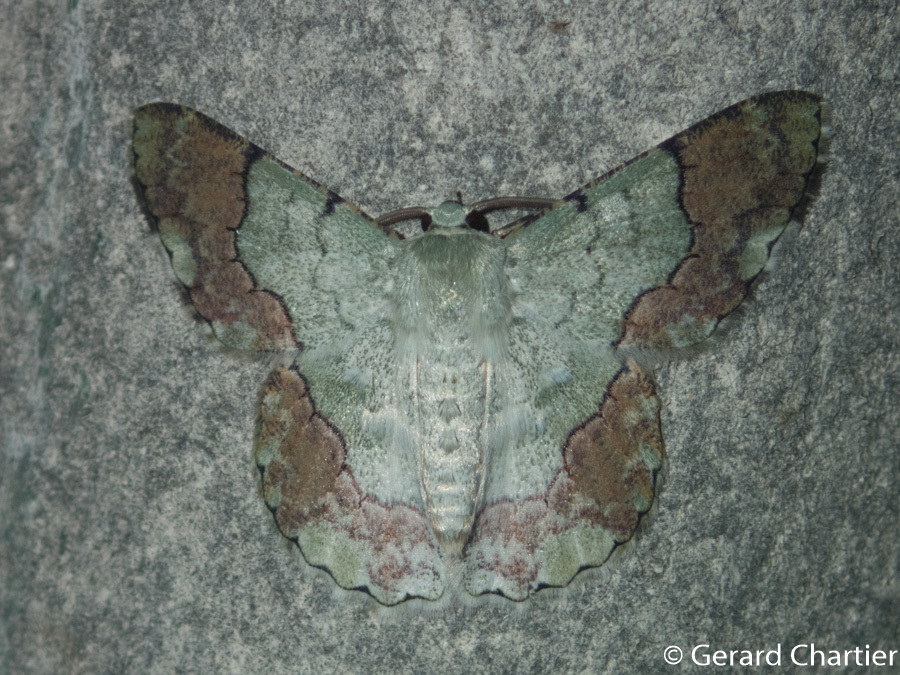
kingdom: Animalia
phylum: Arthropoda
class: Insecta
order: Lepidoptera
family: Geometridae
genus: Pingasa
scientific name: Pingasa ruginaria
